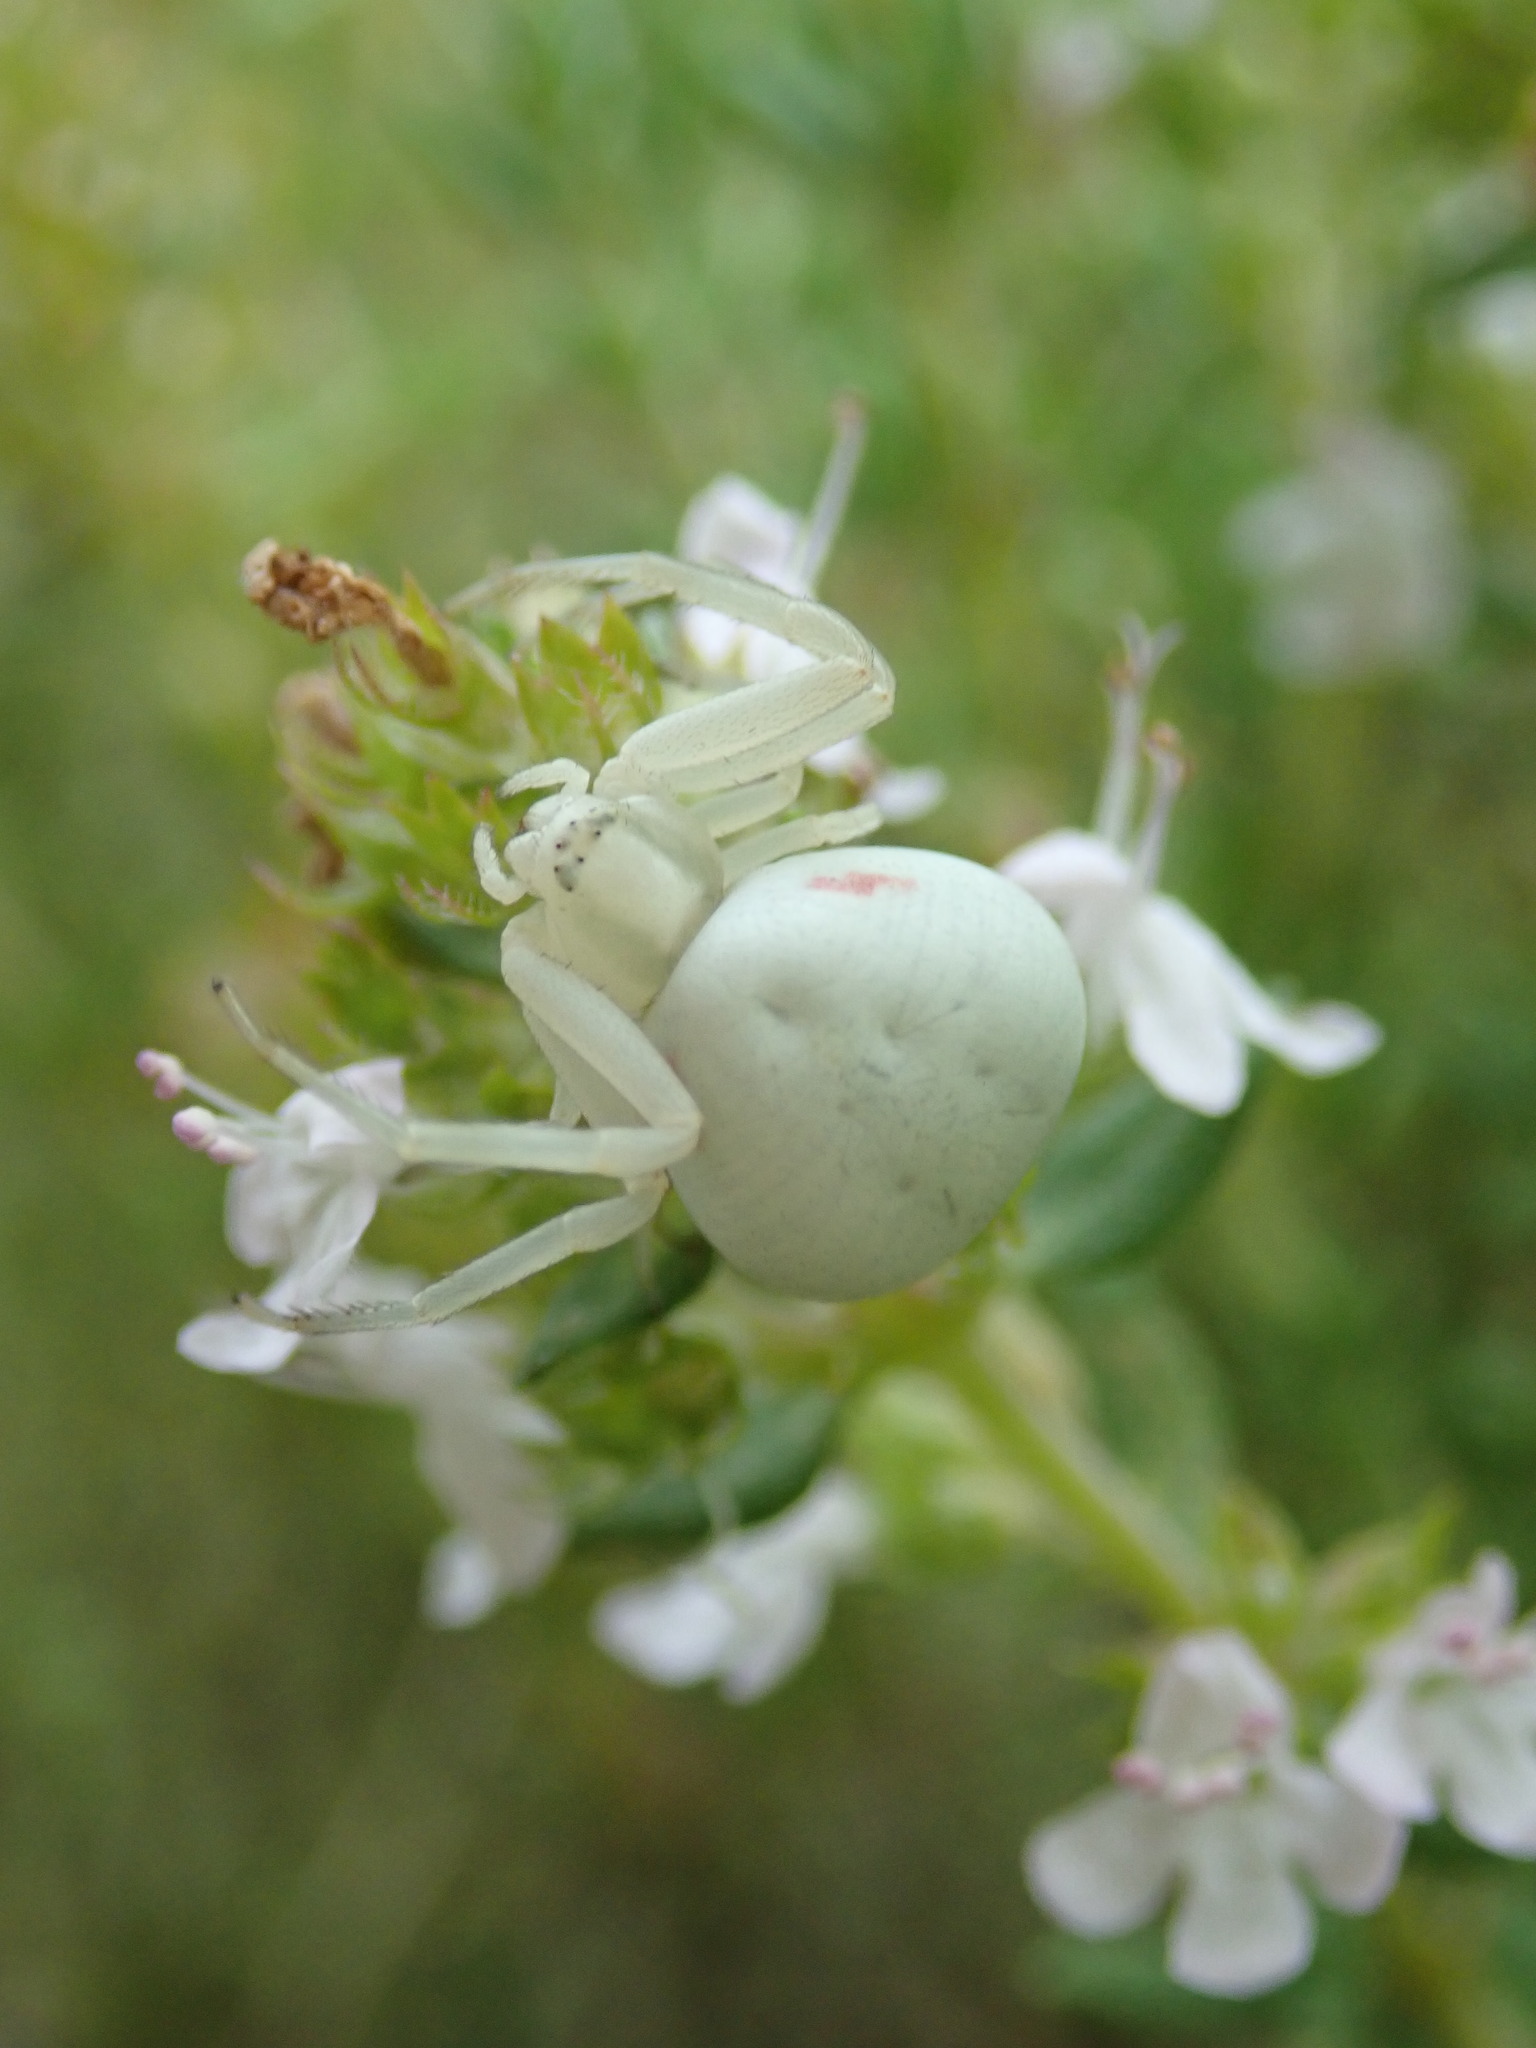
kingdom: Animalia
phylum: Arthropoda
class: Arachnida
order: Araneae
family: Thomisidae
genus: Misumena
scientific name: Misumena vatia
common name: Goldenrod crab spider
